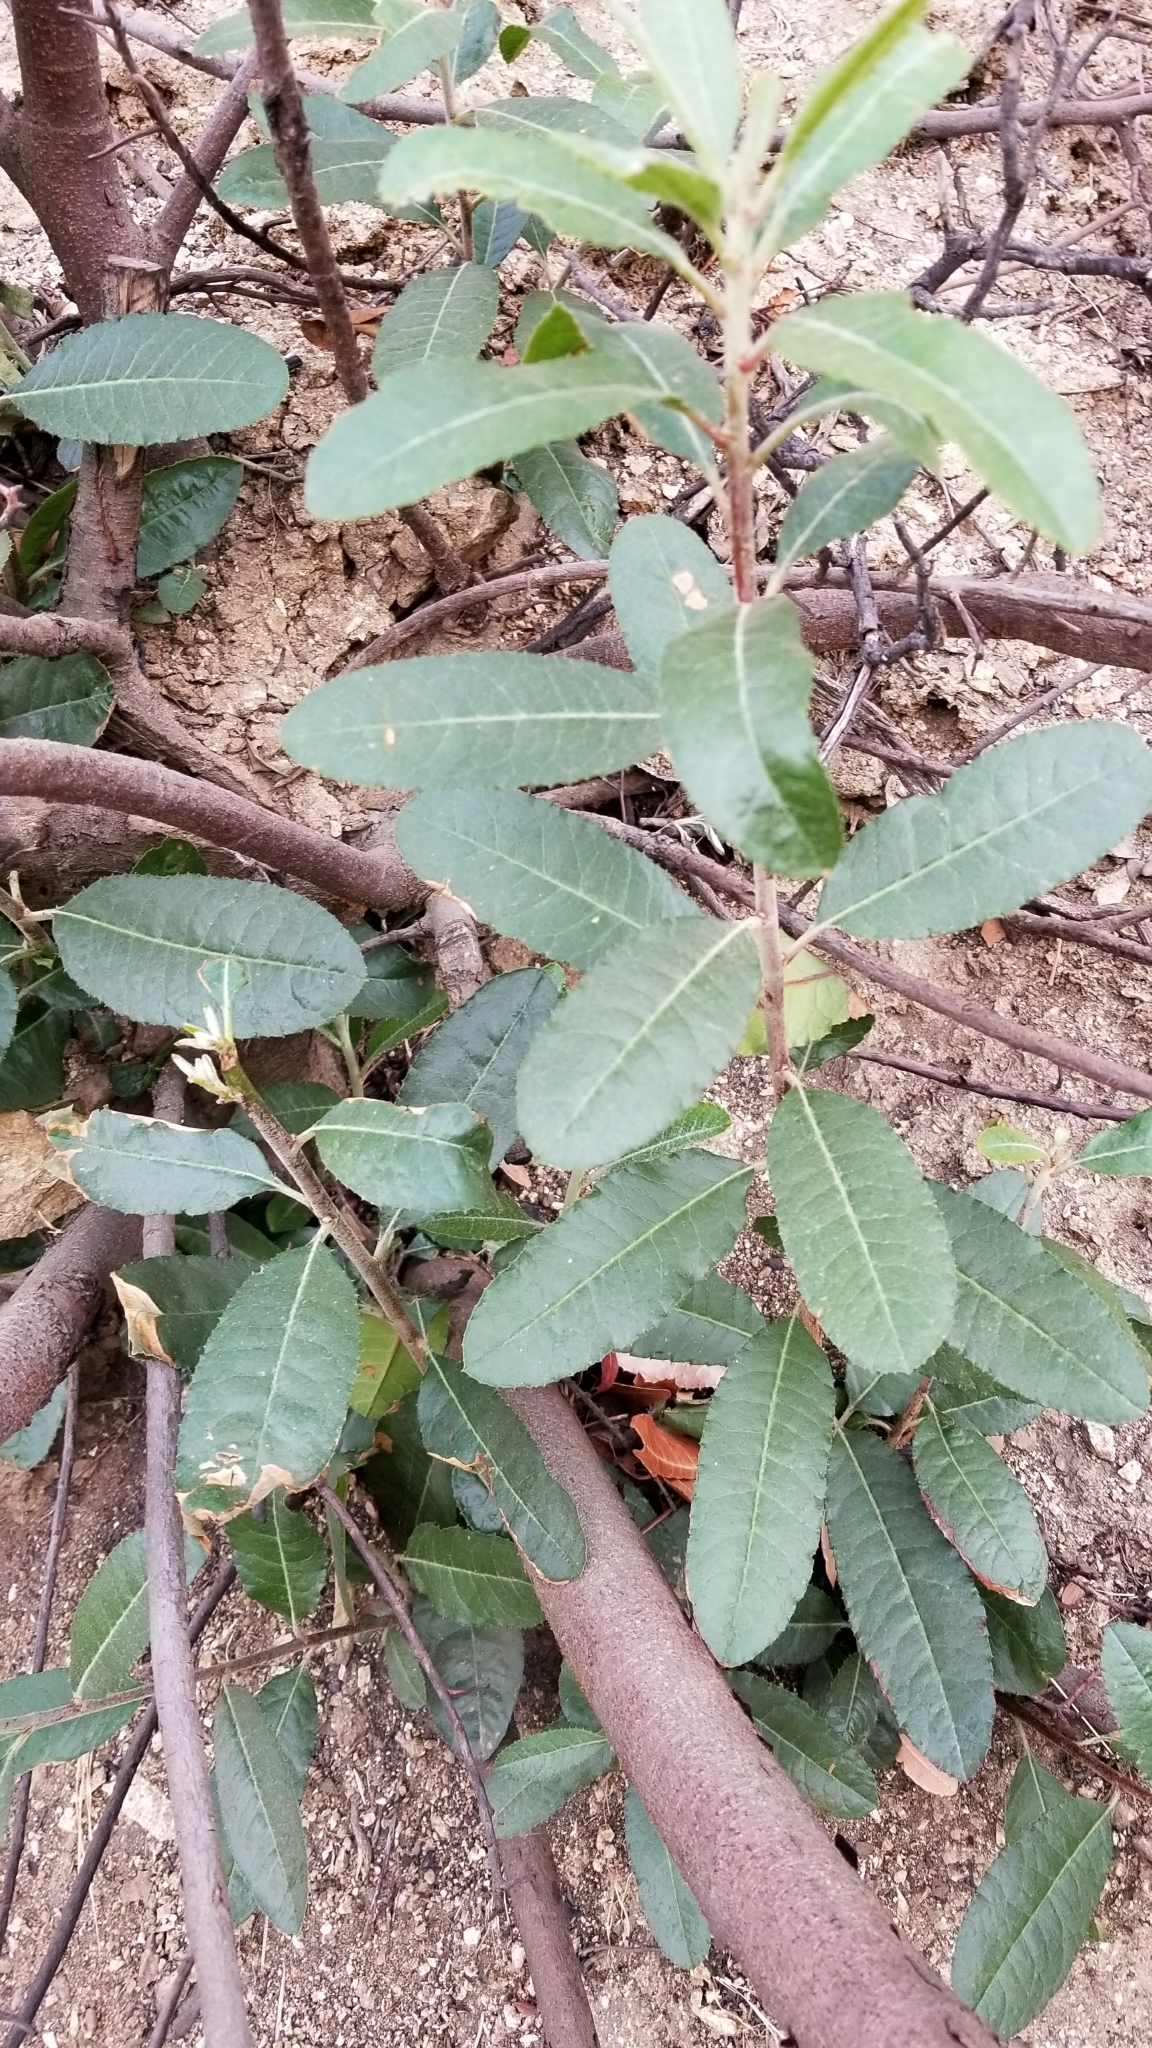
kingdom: Plantae
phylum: Tracheophyta
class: Magnoliopsida
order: Rosales
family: Rosaceae
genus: Heteromeles
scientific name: Heteromeles arbutifolia
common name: California-holly
